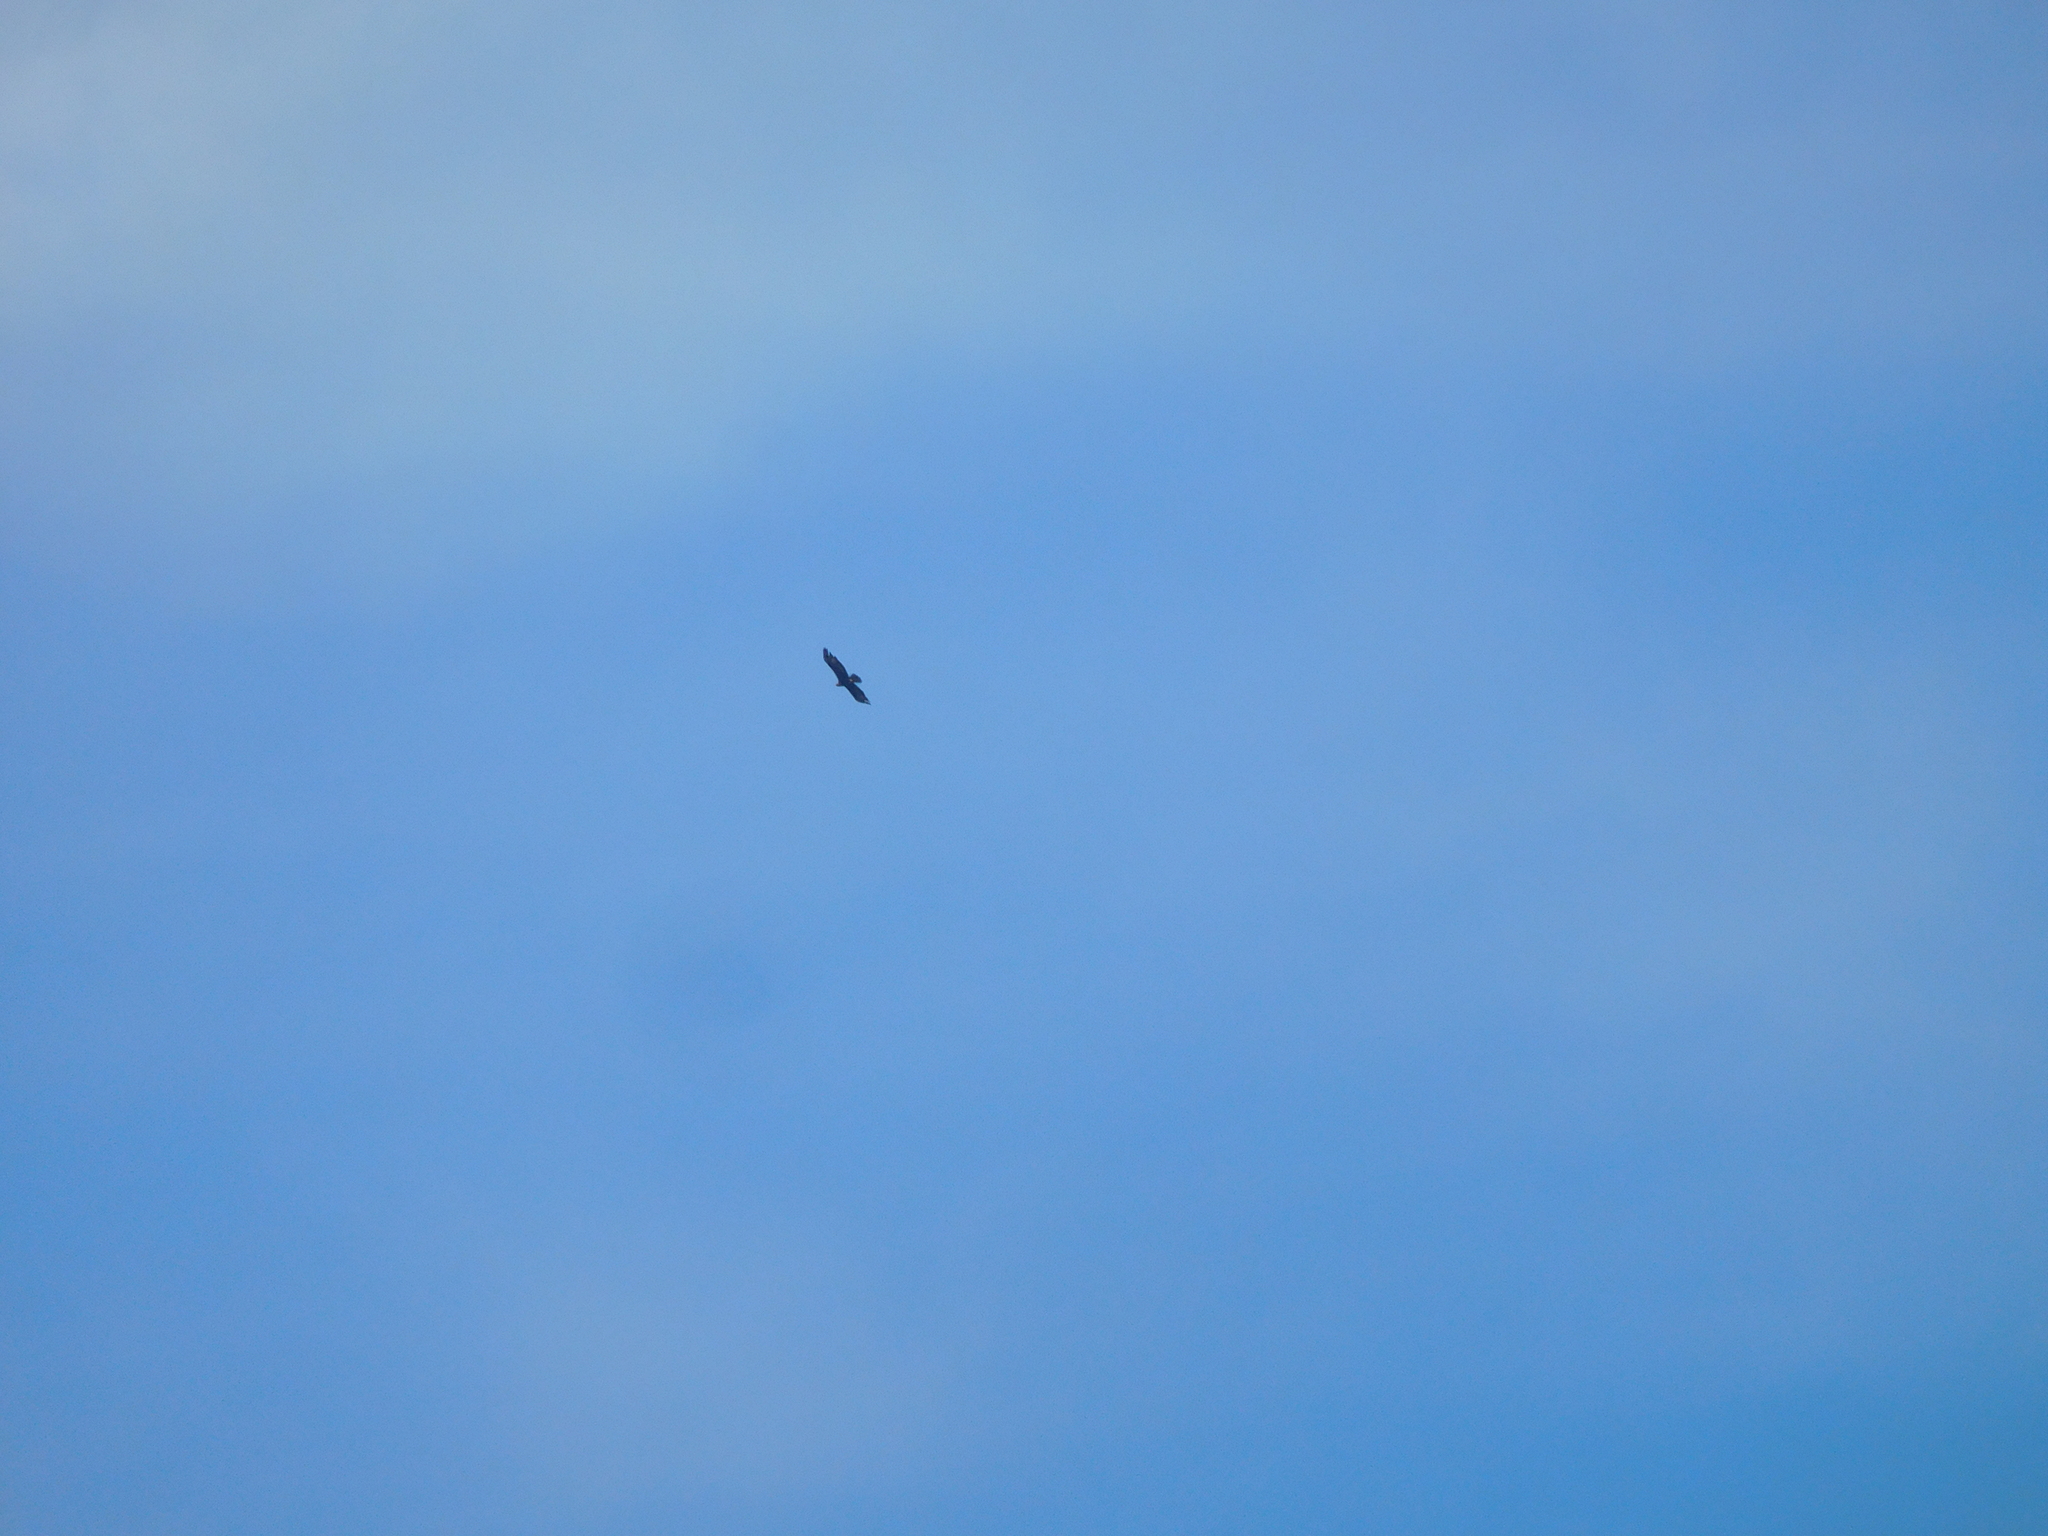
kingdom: Animalia
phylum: Chordata
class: Aves
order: Accipitriformes
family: Accipitridae
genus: Aquila
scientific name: Aquila chrysaetos
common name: Golden eagle
